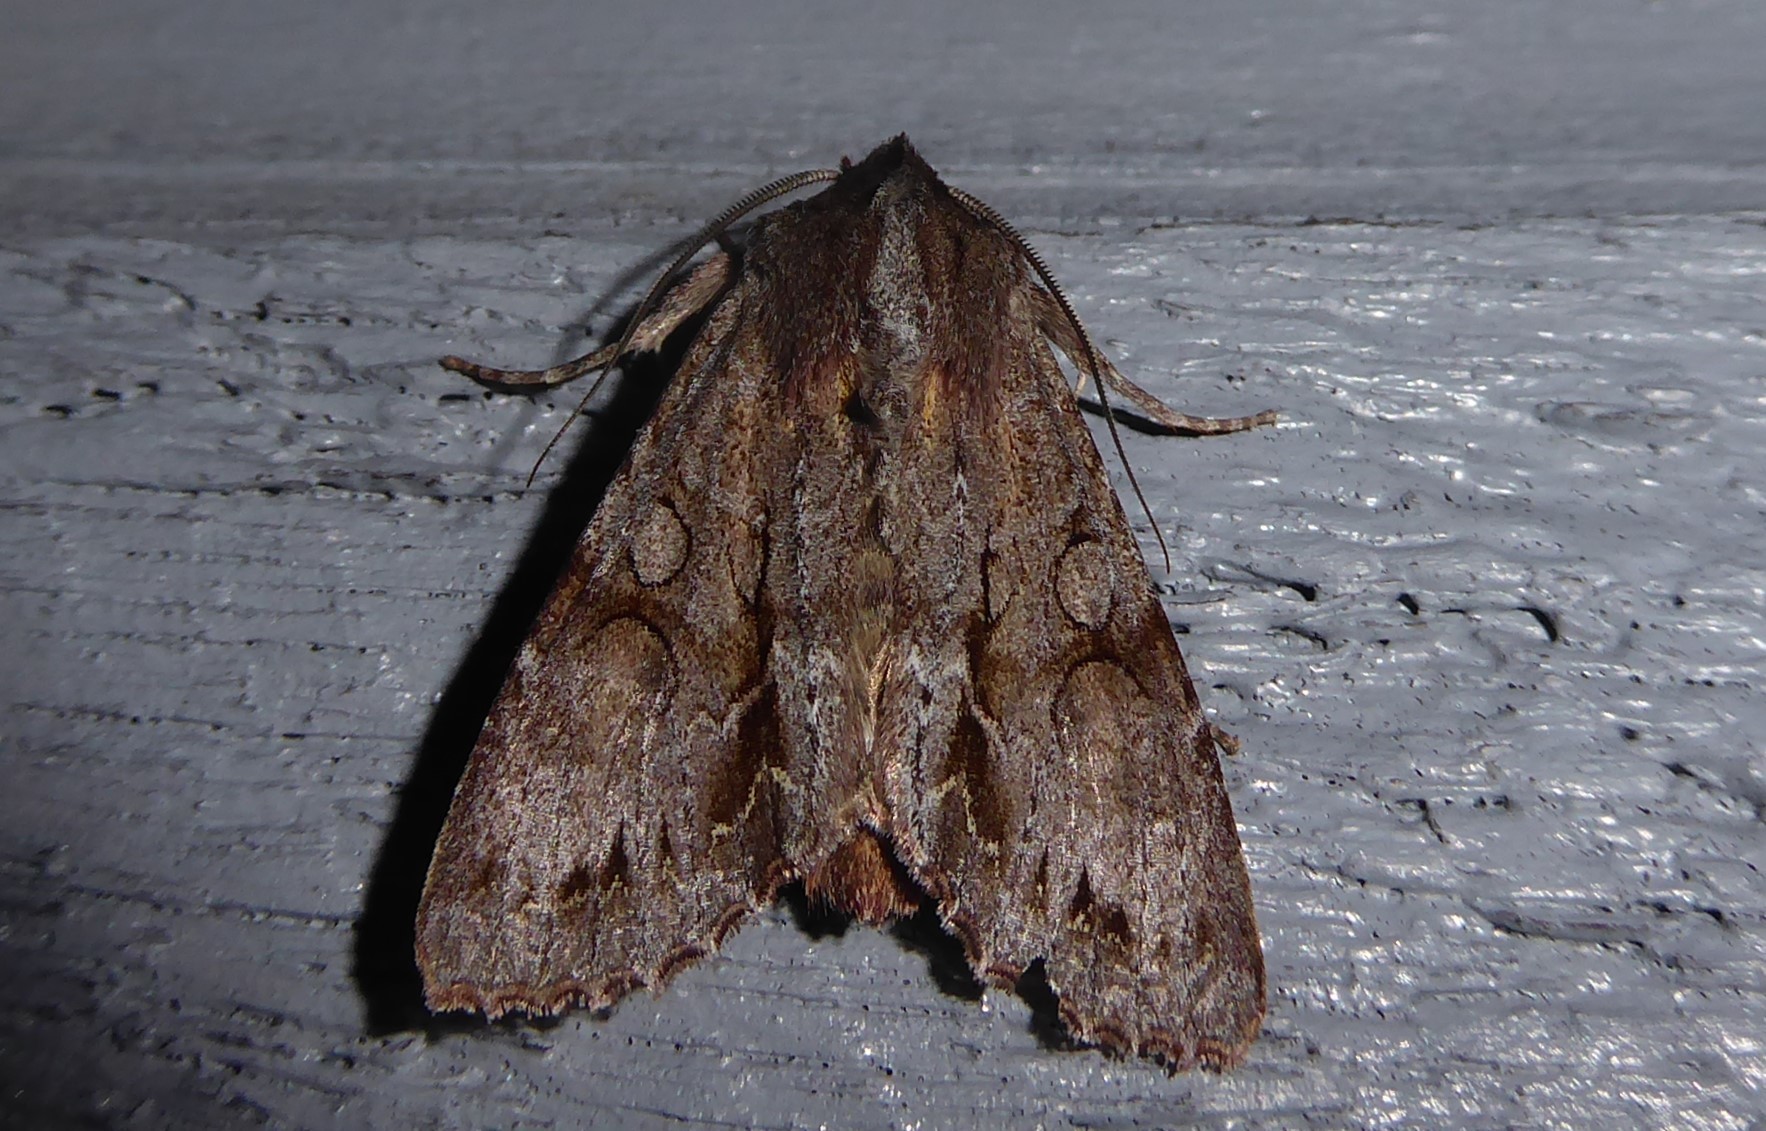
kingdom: Animalia
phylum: Arthropoda
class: Insecta
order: Lepidoptera
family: Noctuidae
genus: Ichneutica
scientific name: Ichneutica
